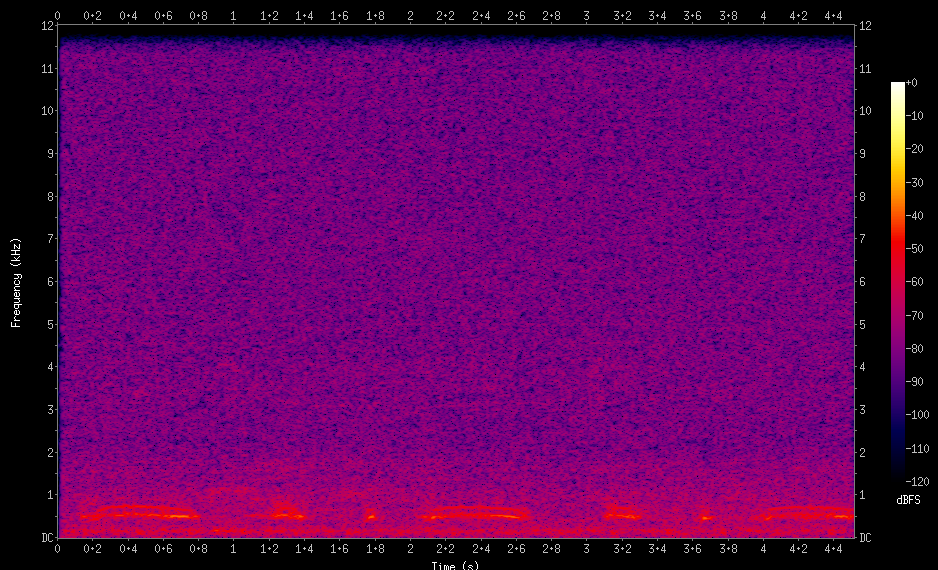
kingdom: Animalia
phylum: Chordata
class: Aves
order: Columbiformes
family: Columbidae
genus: Patagioenas
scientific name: Patagioenas maculosa
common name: Spot-winged pigeon
